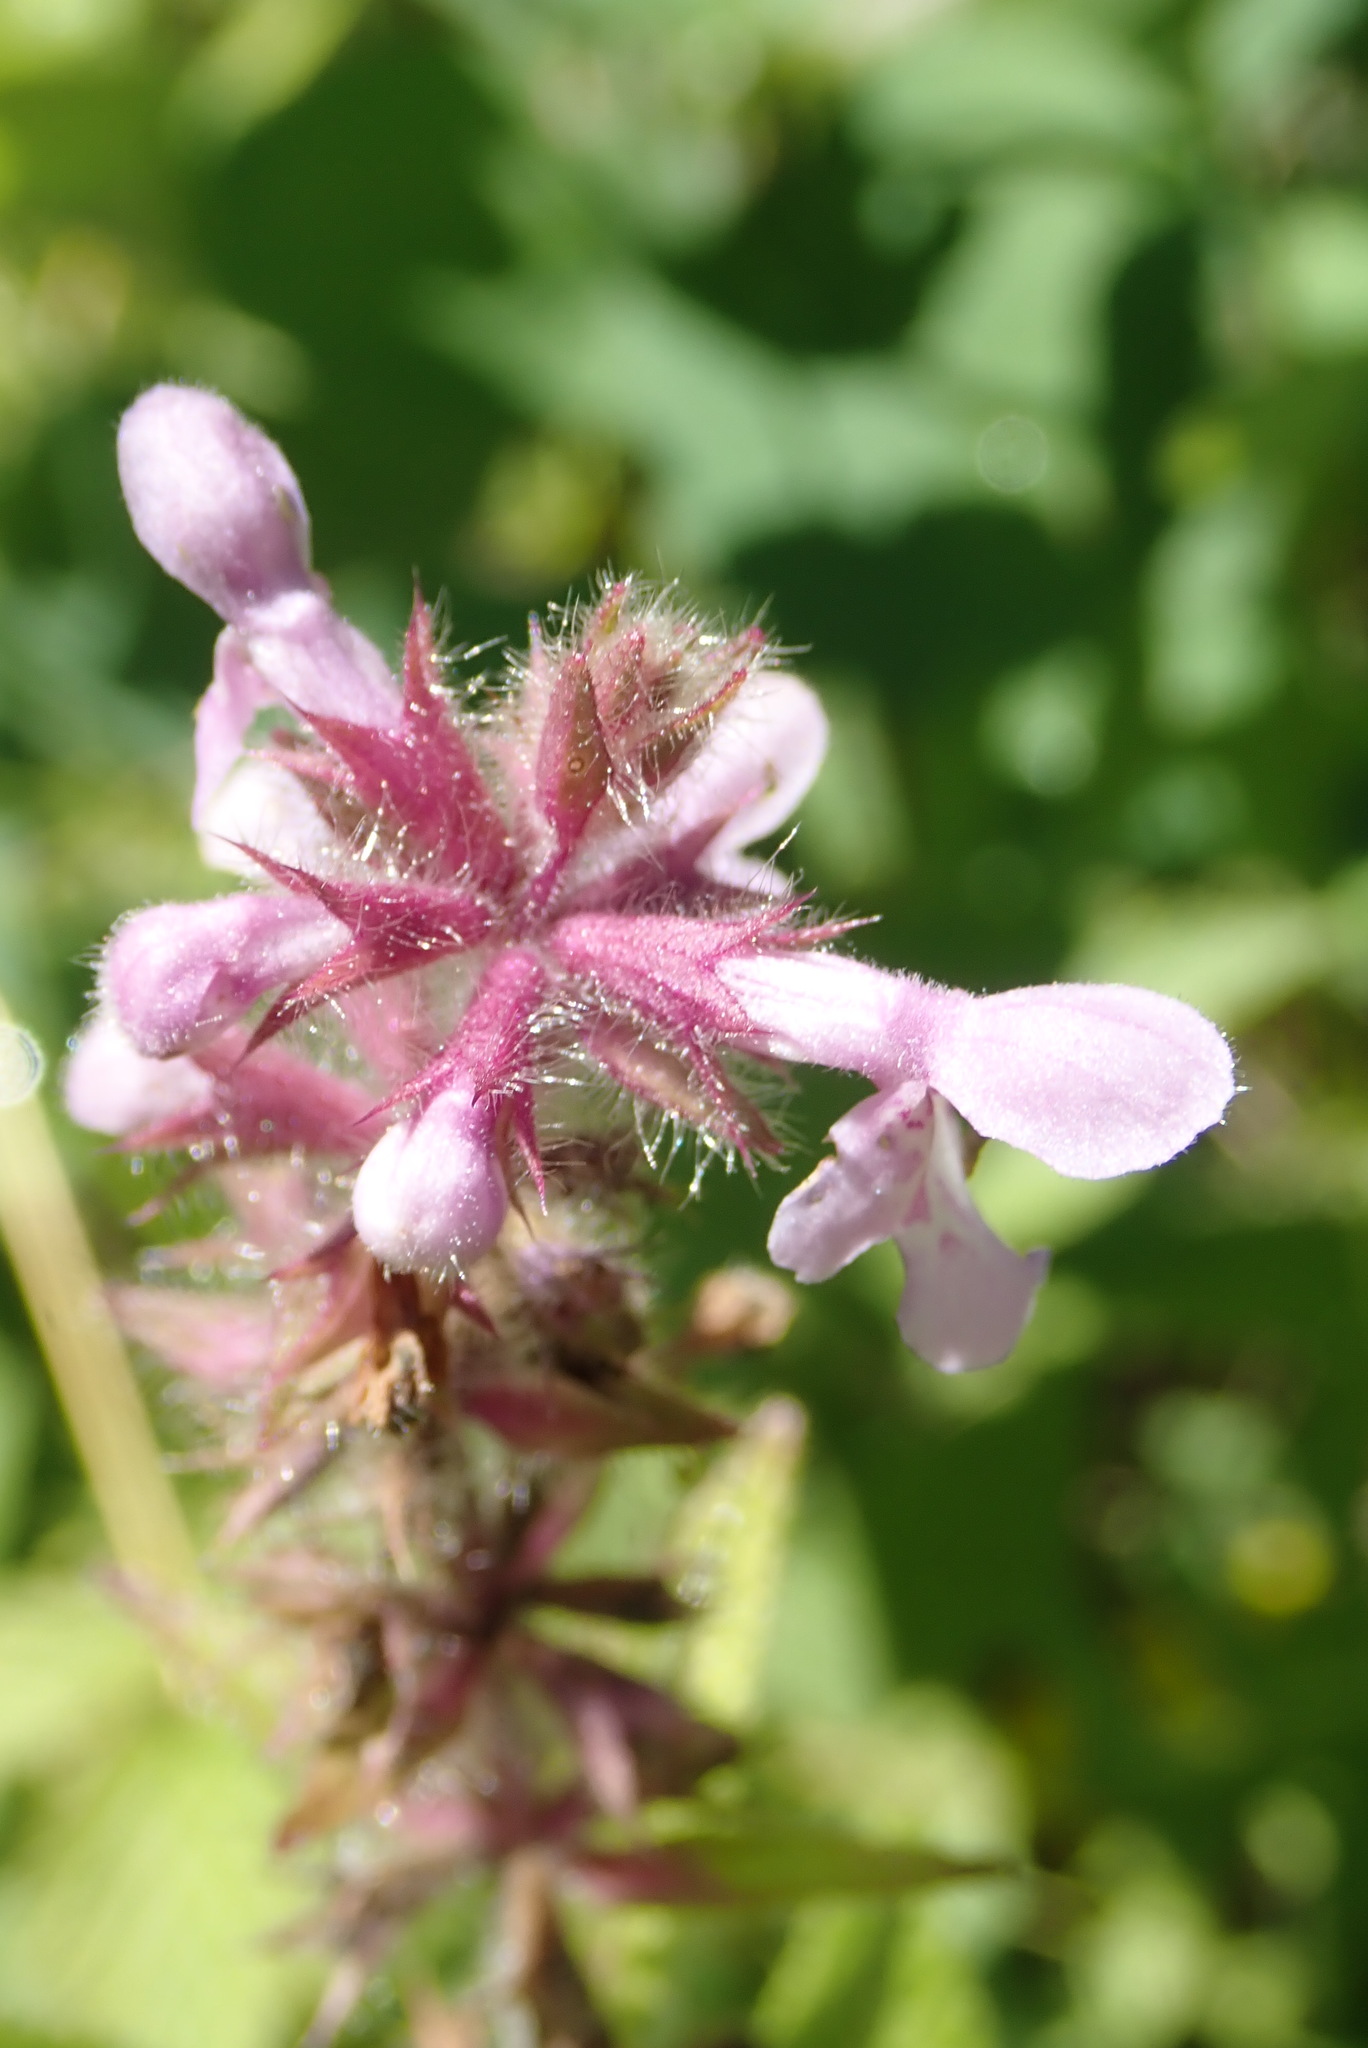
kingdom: Plantae
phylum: Tracheophyta
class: Magnoliopsida
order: Lamiales
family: Lamiaceae
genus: Stachys
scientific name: Stachys hispida
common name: Hispid hedge-nettle
